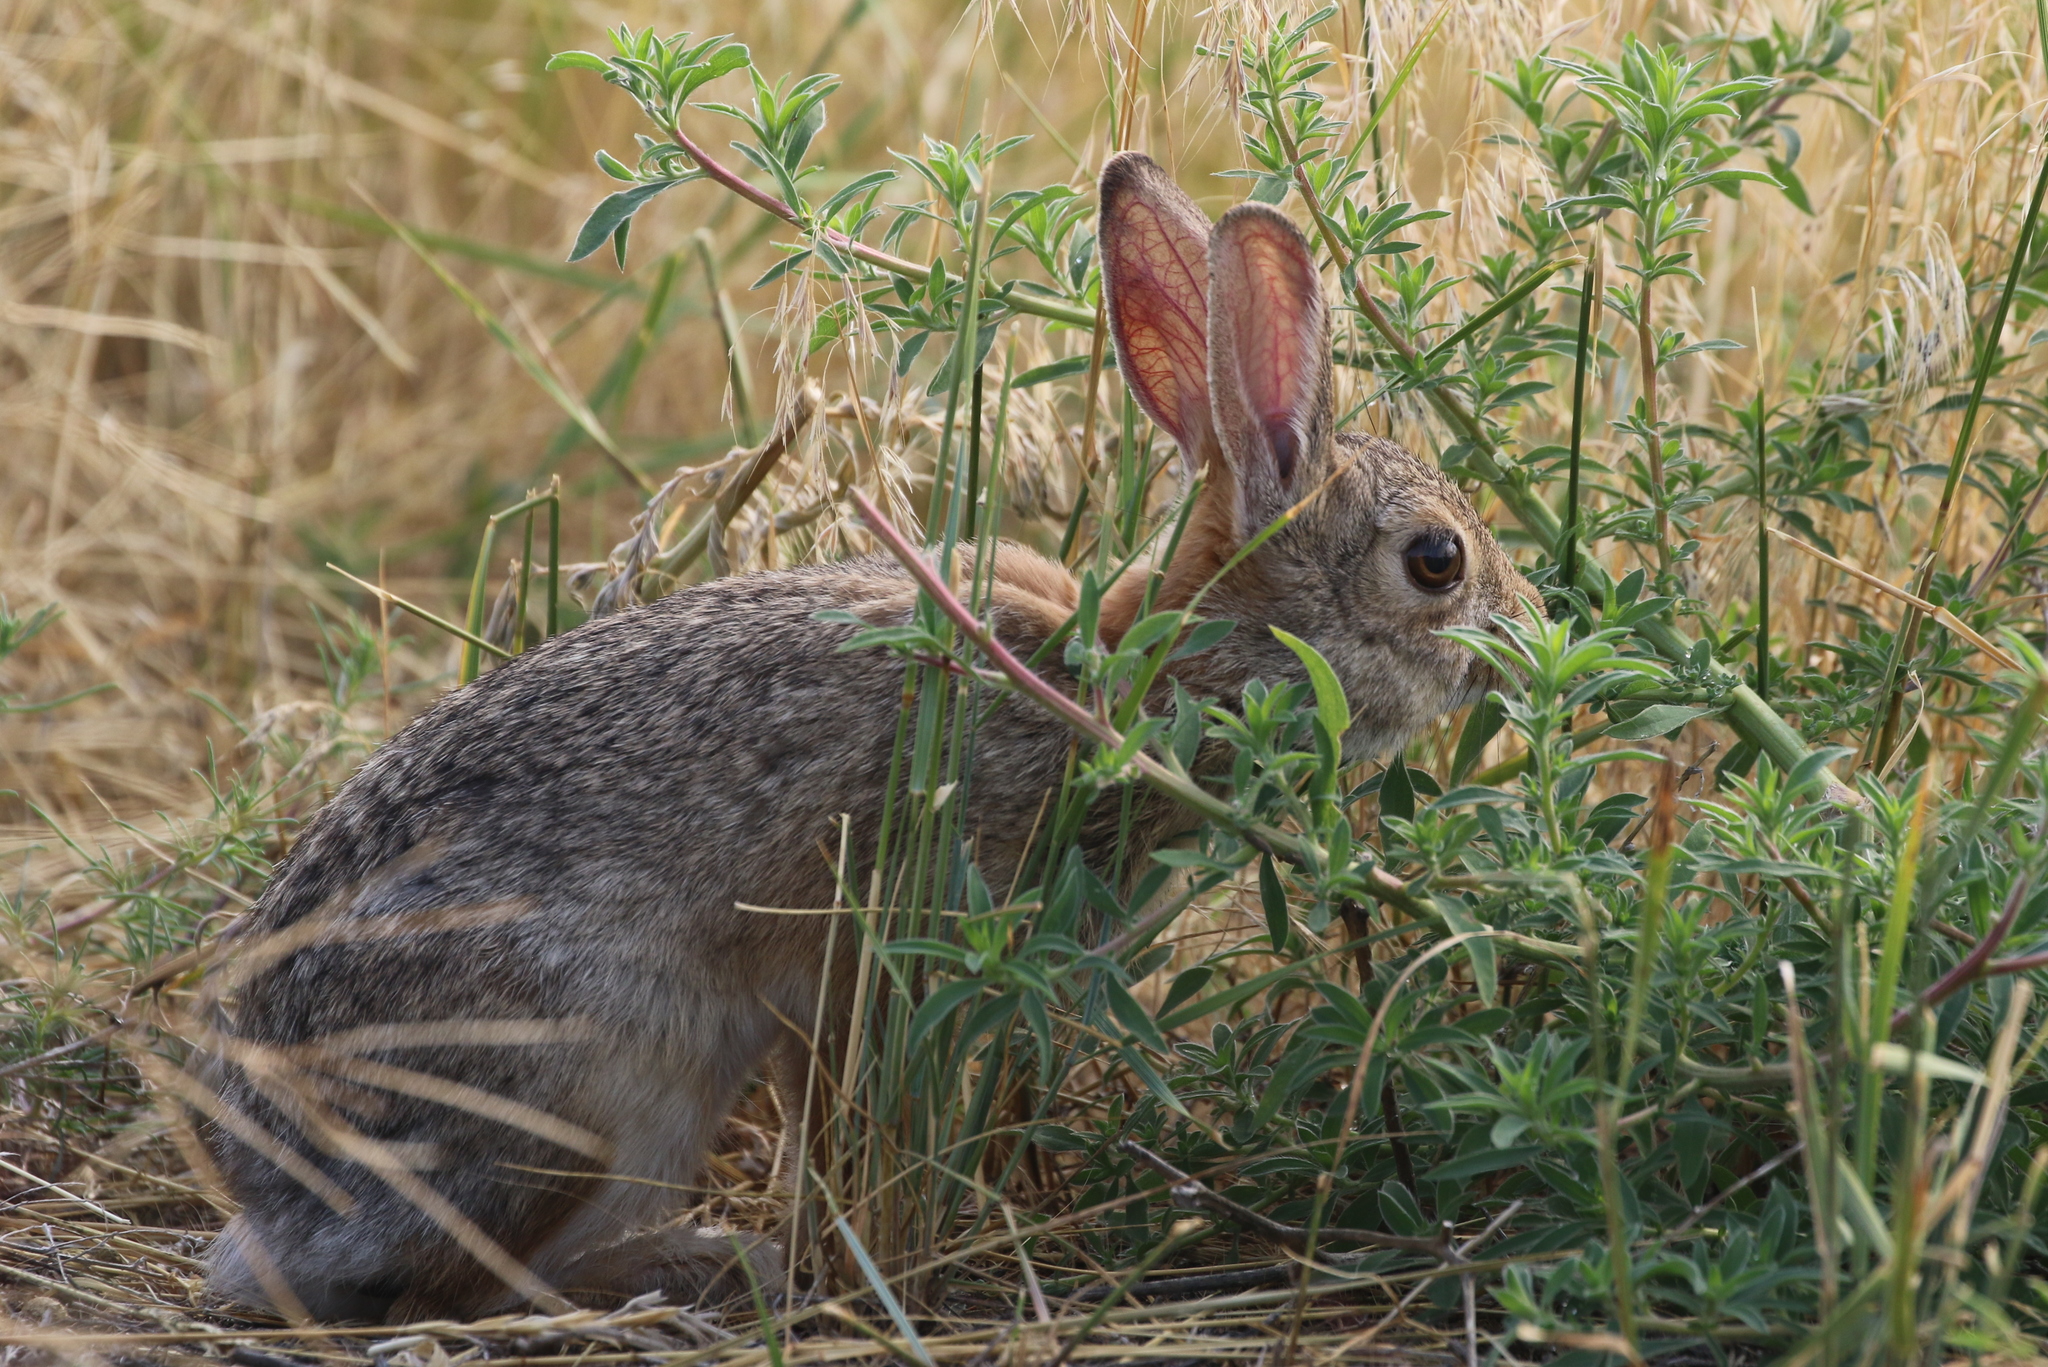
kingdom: Animalia
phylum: Chordata
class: Mammalia
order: Lagomorpha
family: Leporidae
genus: Sylvilagus
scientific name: Sylvilagus audubonii
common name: Desert cottontail
